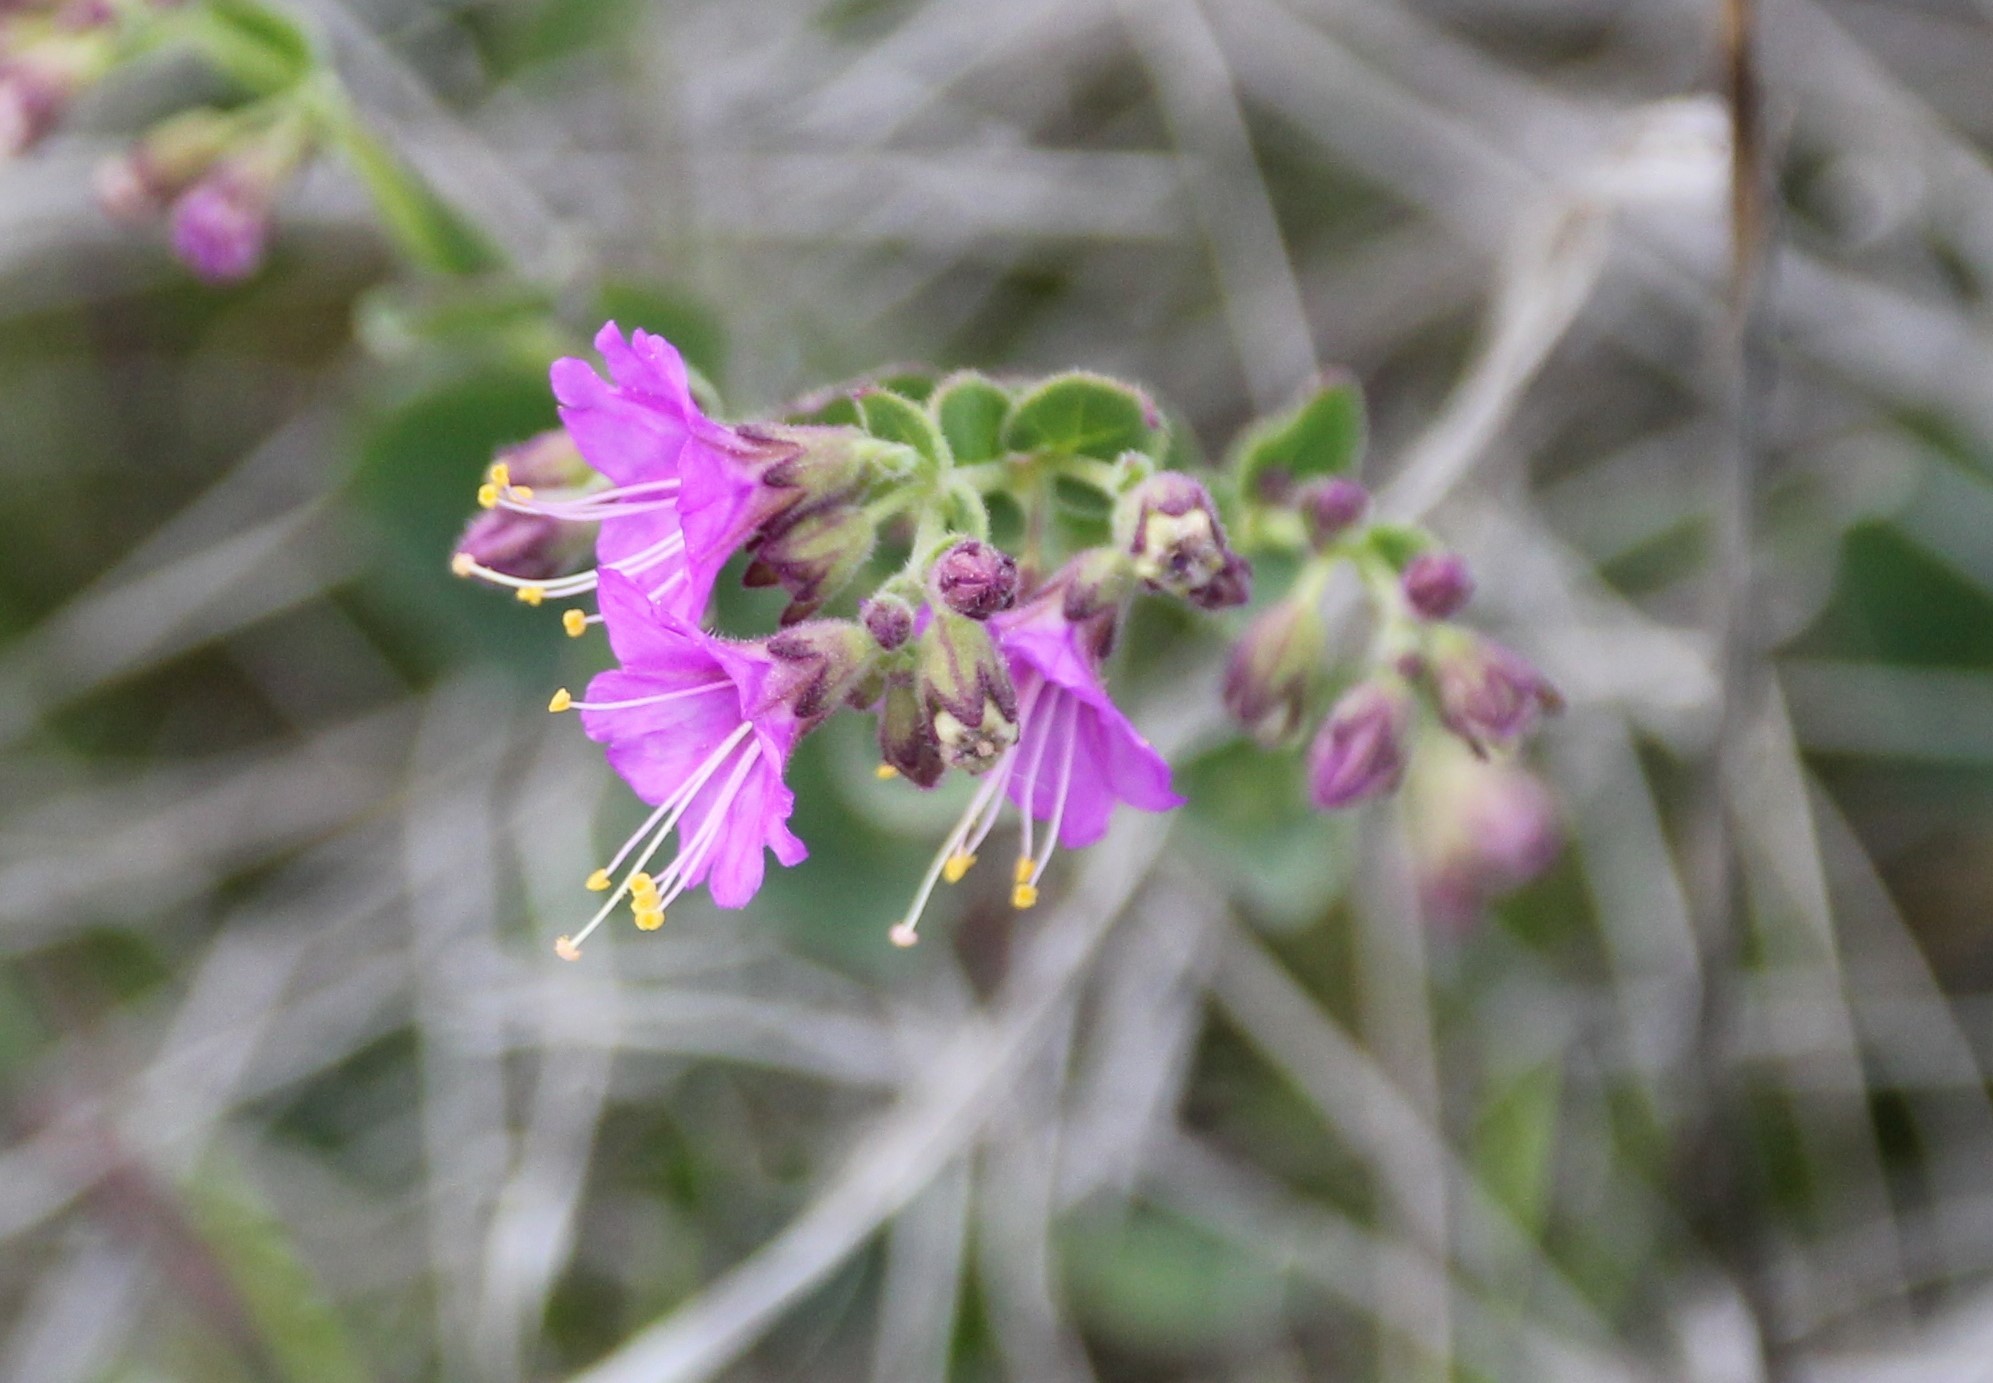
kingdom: Plantae
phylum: Tracheophyta
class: Magnoliopsida
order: Caryophyllales
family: Nyctaginaceae
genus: Mirabilis
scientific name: Mirabilis laevis
